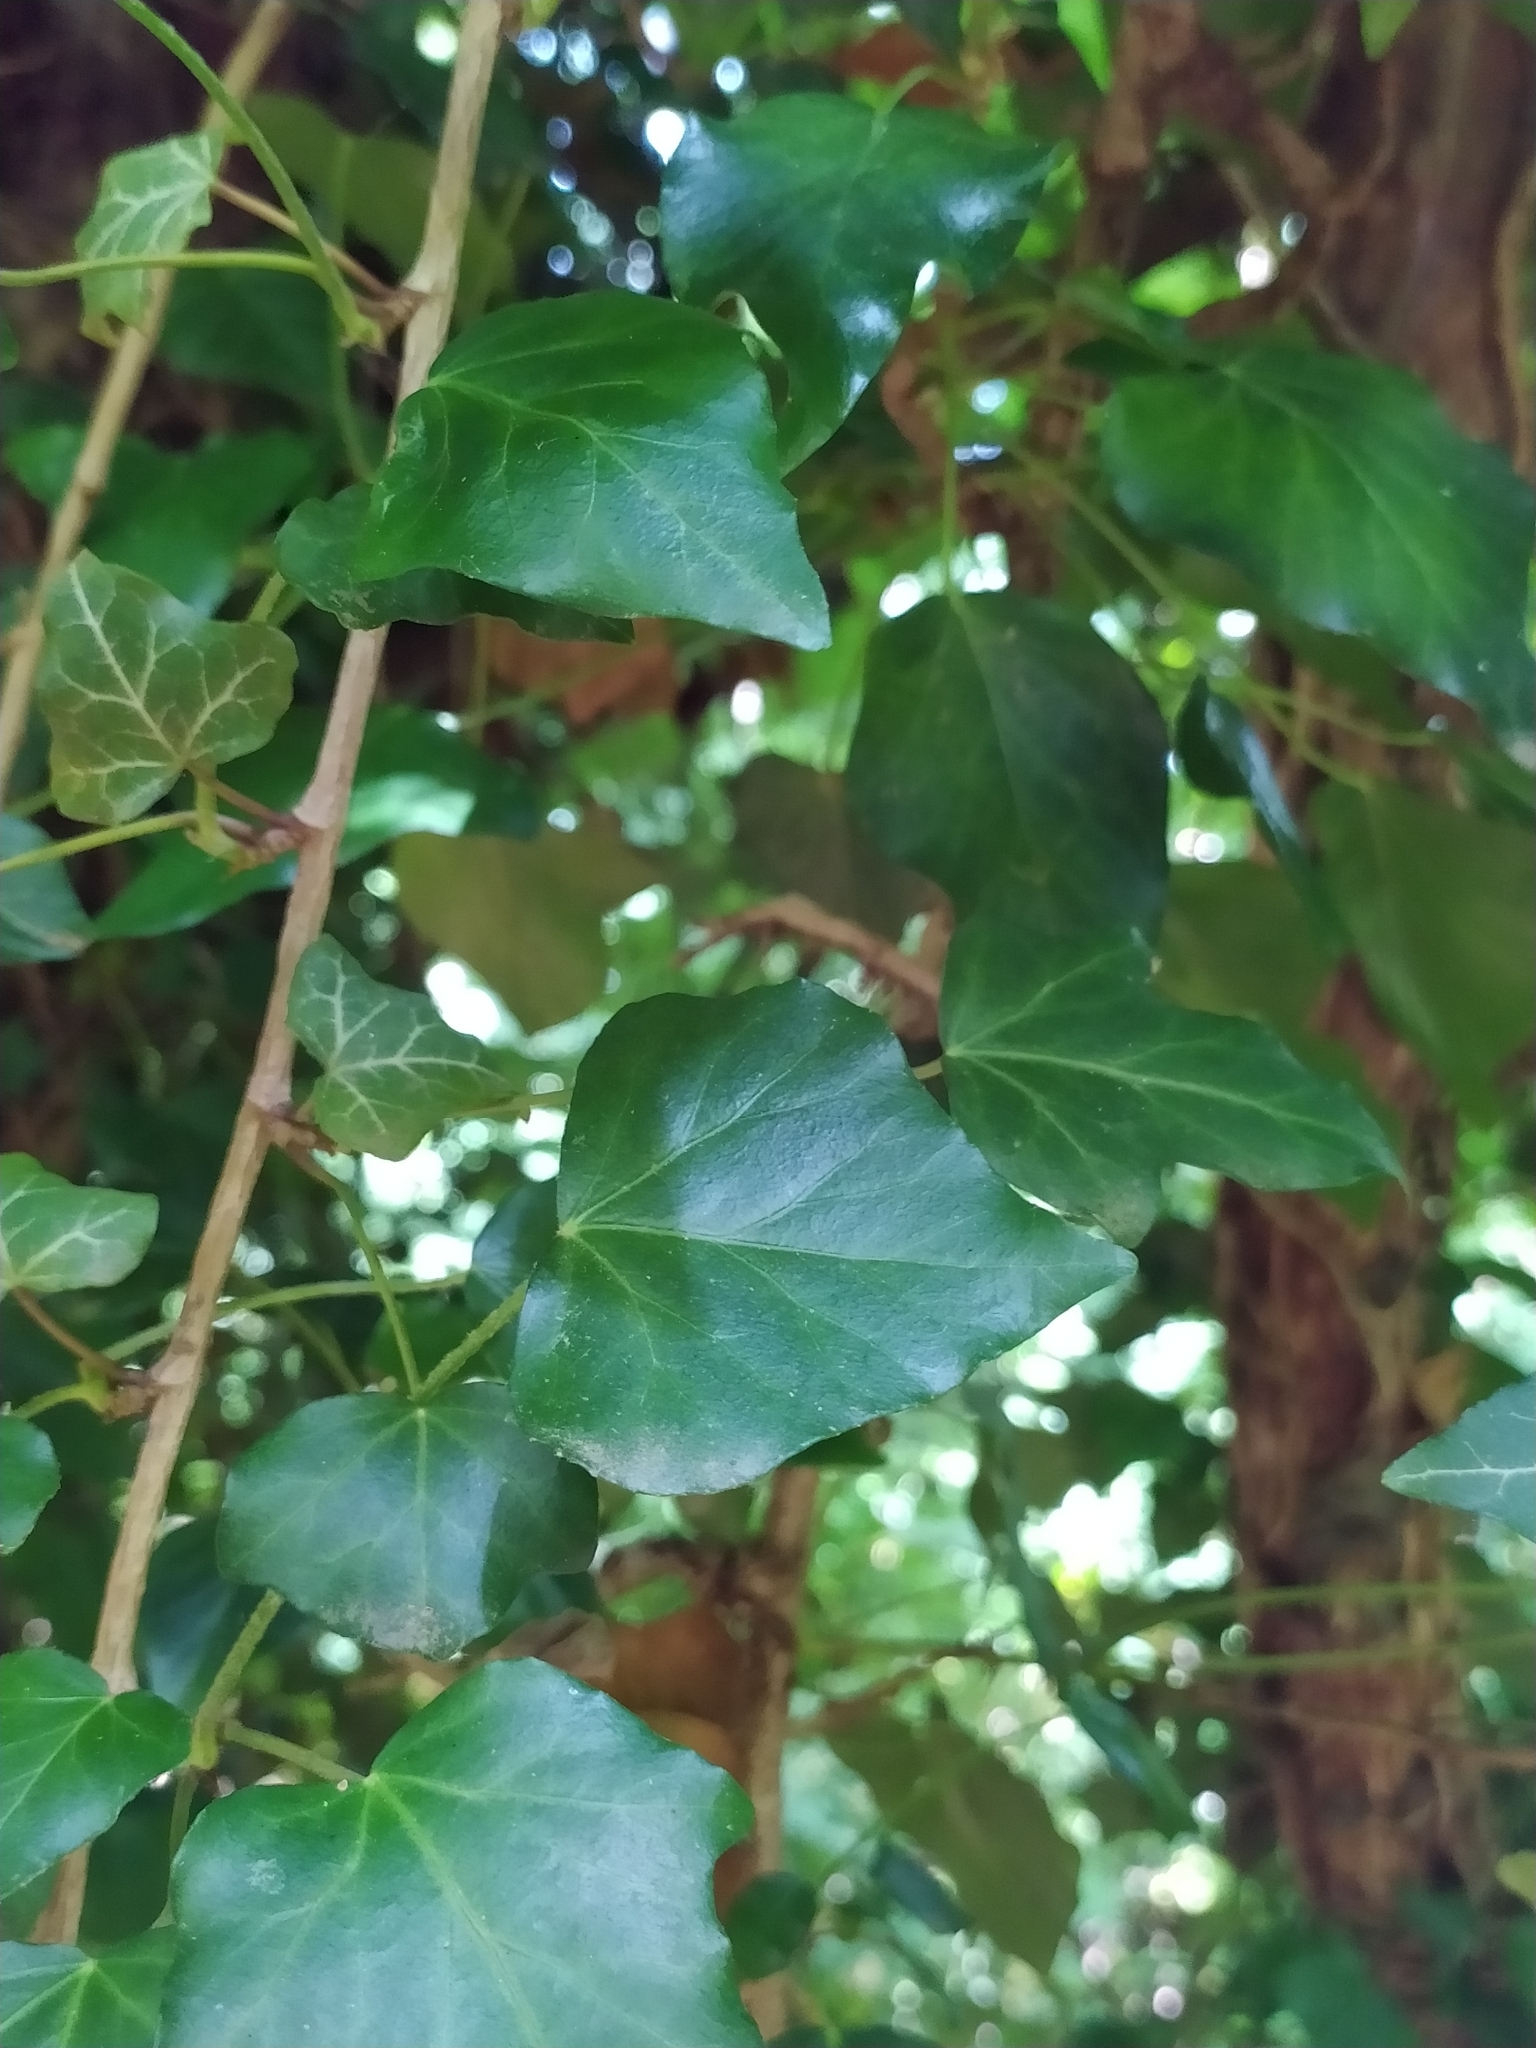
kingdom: Plantae
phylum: Tracheophyta
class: Magnoliopsida
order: Apiales
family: Araliaceae
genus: Hedera
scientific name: Hedera helix
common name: Ivy
